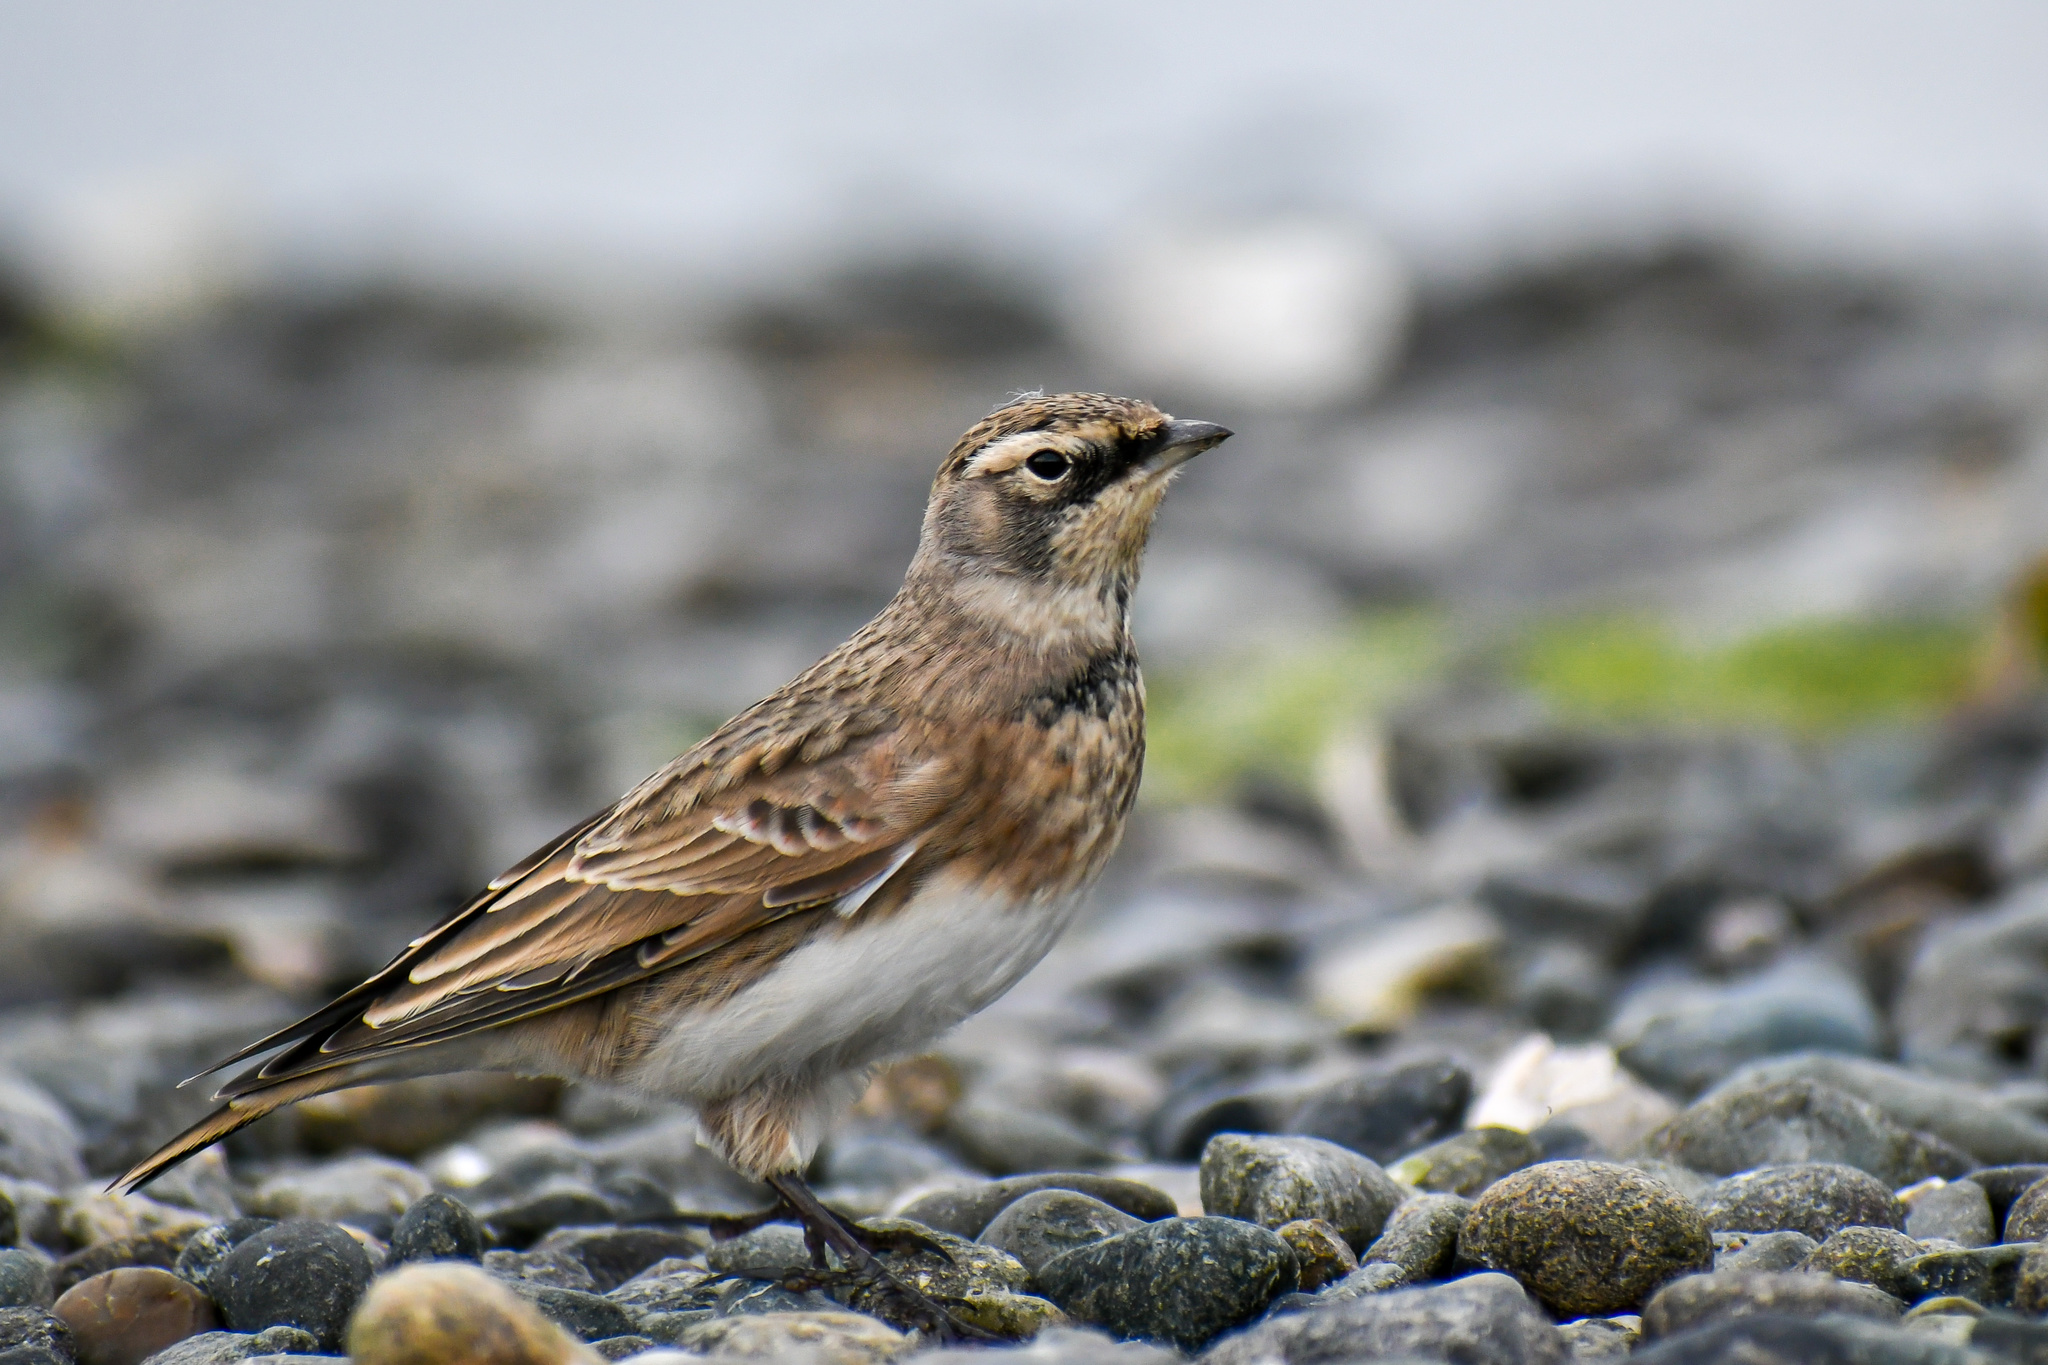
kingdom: Animalia
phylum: Chordata
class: Aves
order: Passeriformes
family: Alaudidae
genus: Eremophila
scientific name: Eremophila alpestris
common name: Horned lark
